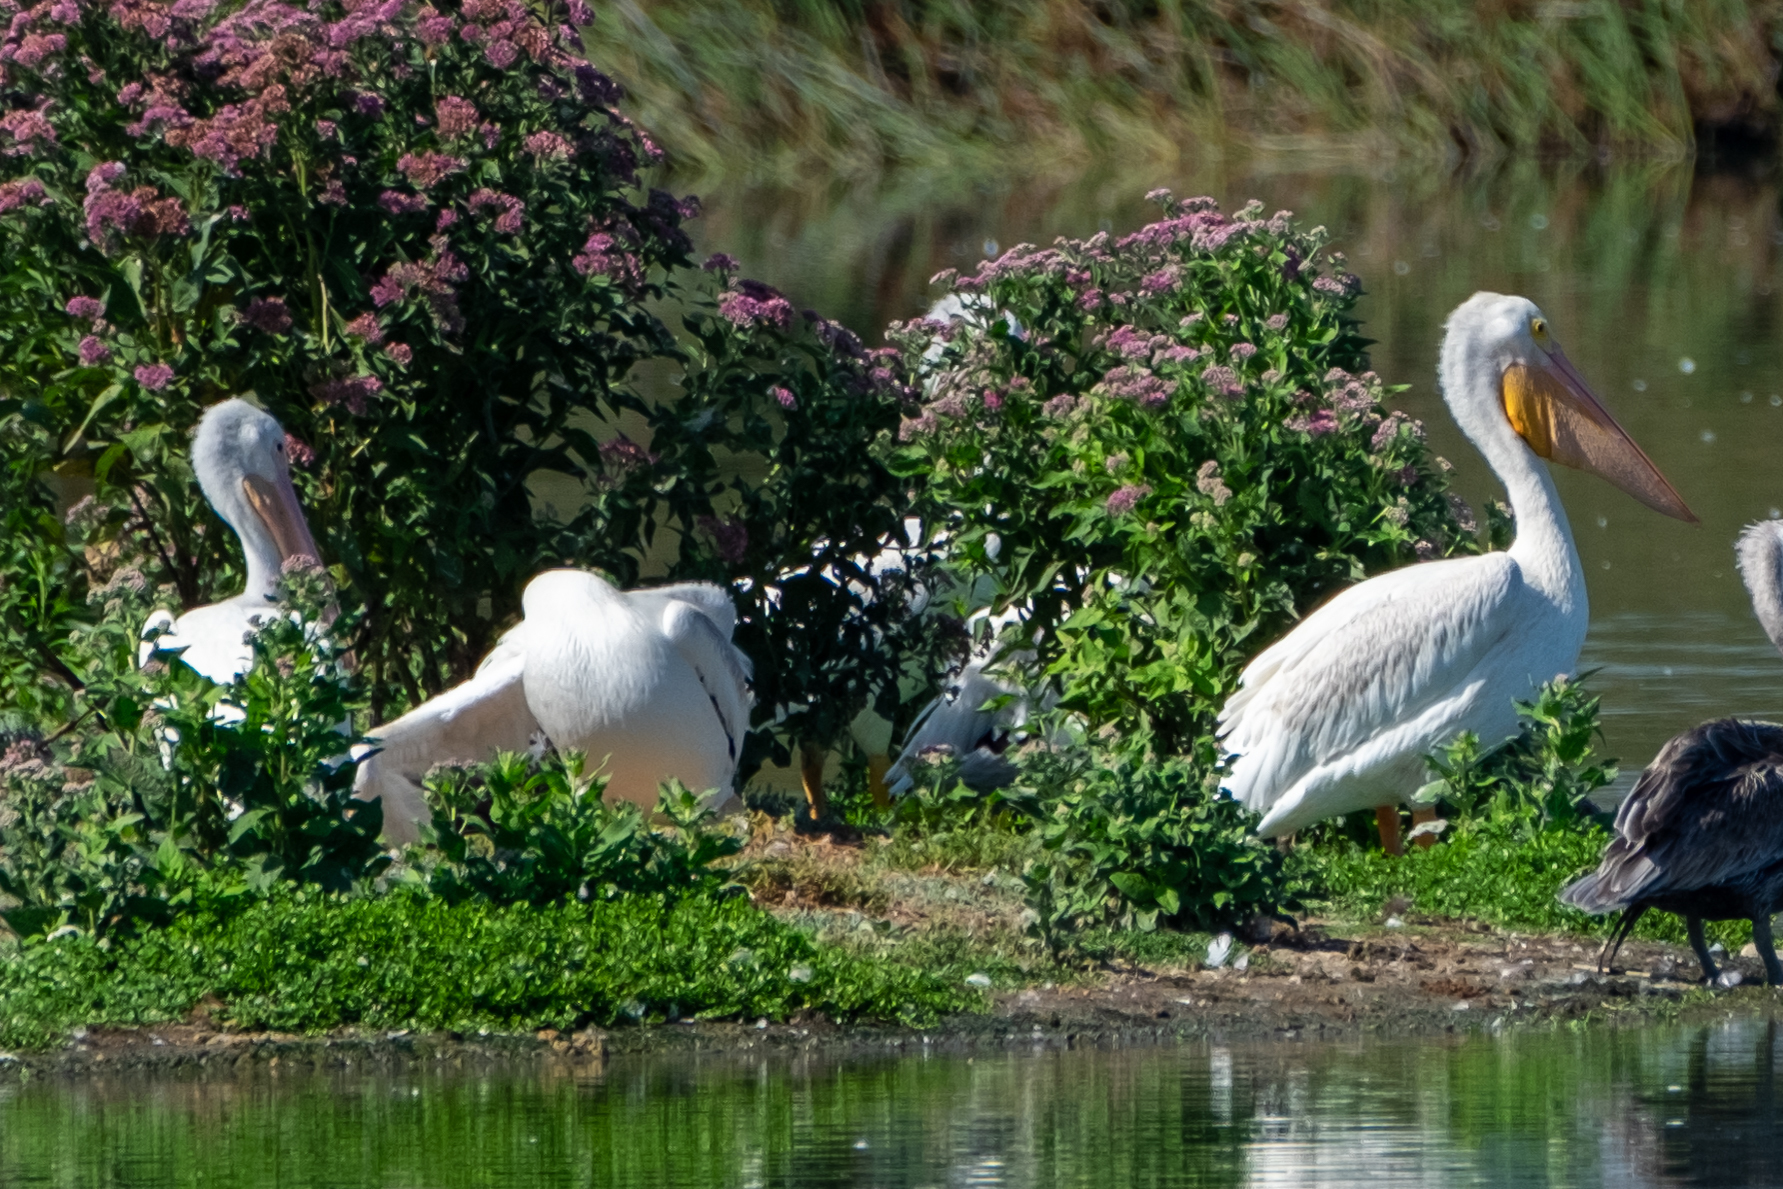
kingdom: Animalia
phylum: Chordata
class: Aves
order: Pelecaniformes
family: Pelecanidae
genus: Pelecanus
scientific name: Pelecanus erythrorhynchos
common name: American white pelican
